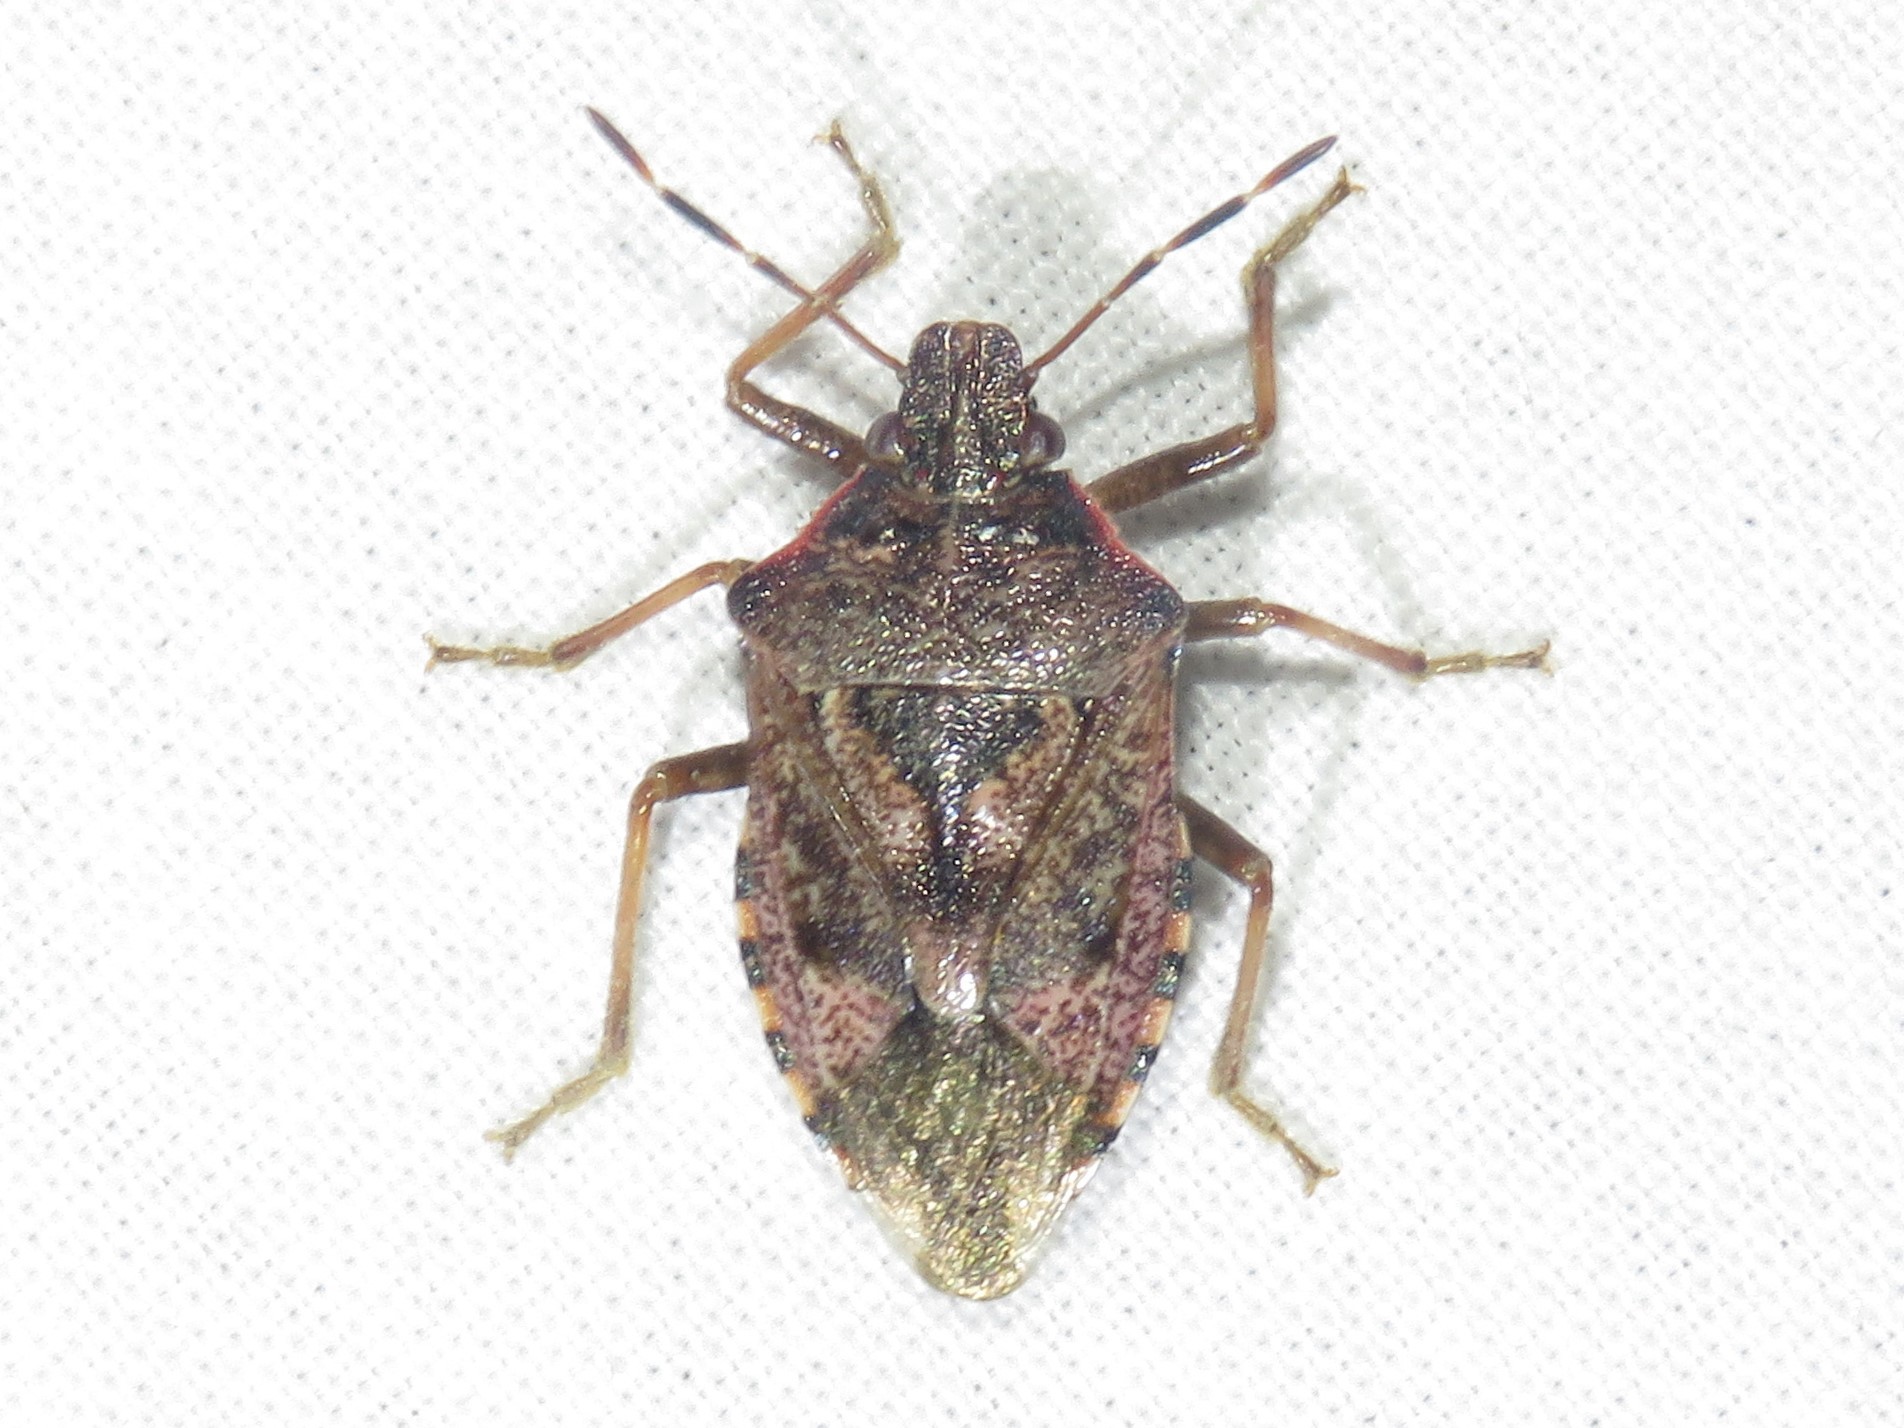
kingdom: Animalia
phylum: Arthropoda
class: Insecta
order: Hemiptera
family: Pentatomidae
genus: Podisus
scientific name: Podisus serieventris
